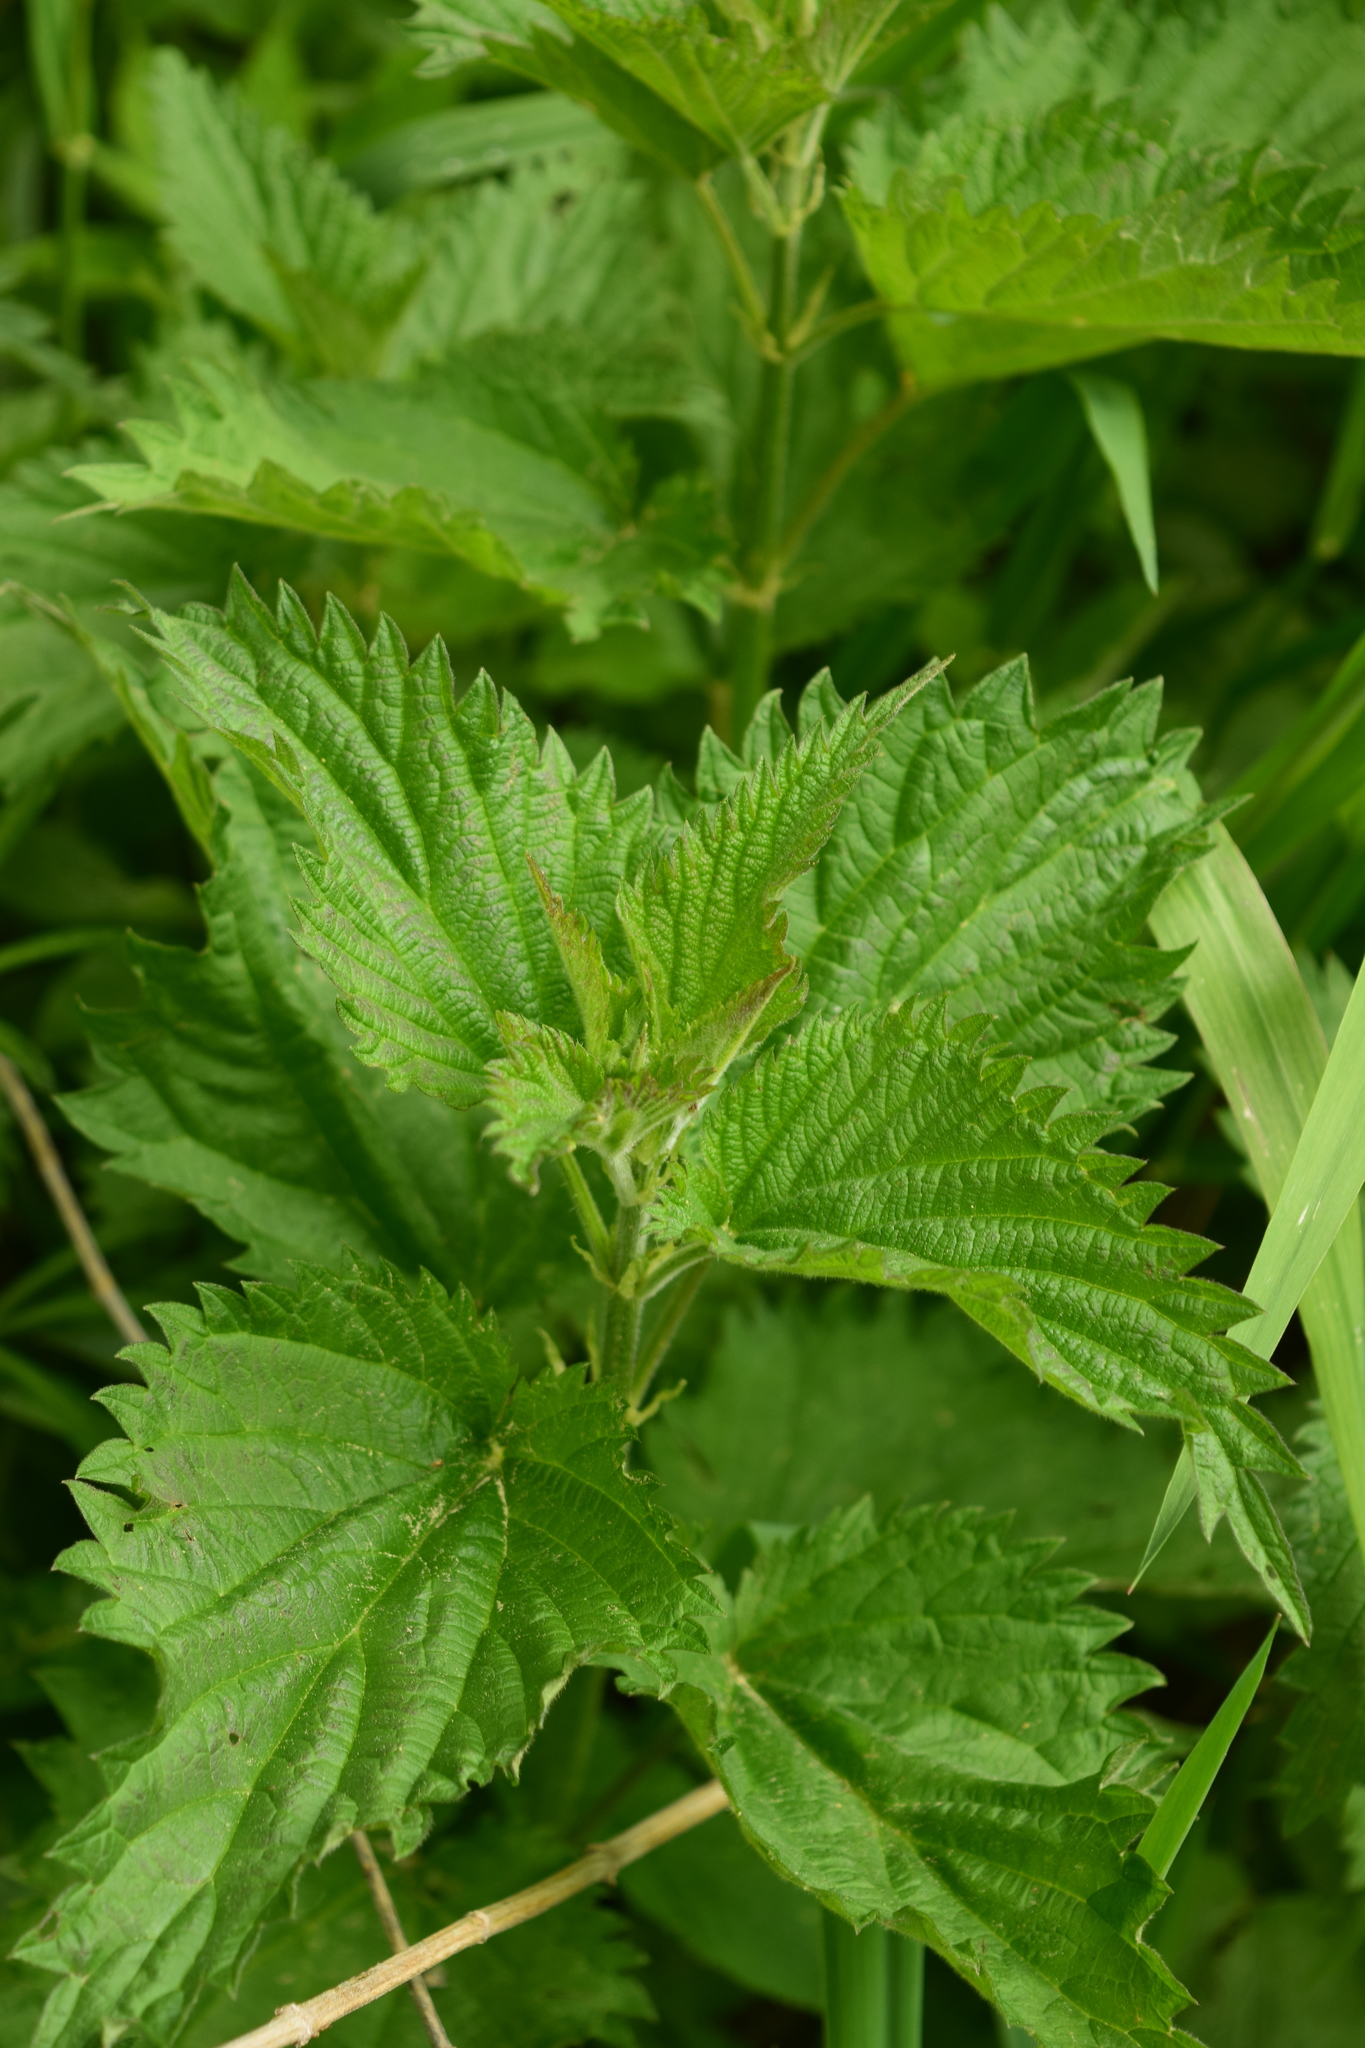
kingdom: Plantae
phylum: Tracheophyta
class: Magnoliopsida
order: Rosales
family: Urticaceae
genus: Urtica
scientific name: Urtica dioica
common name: Common nettle
